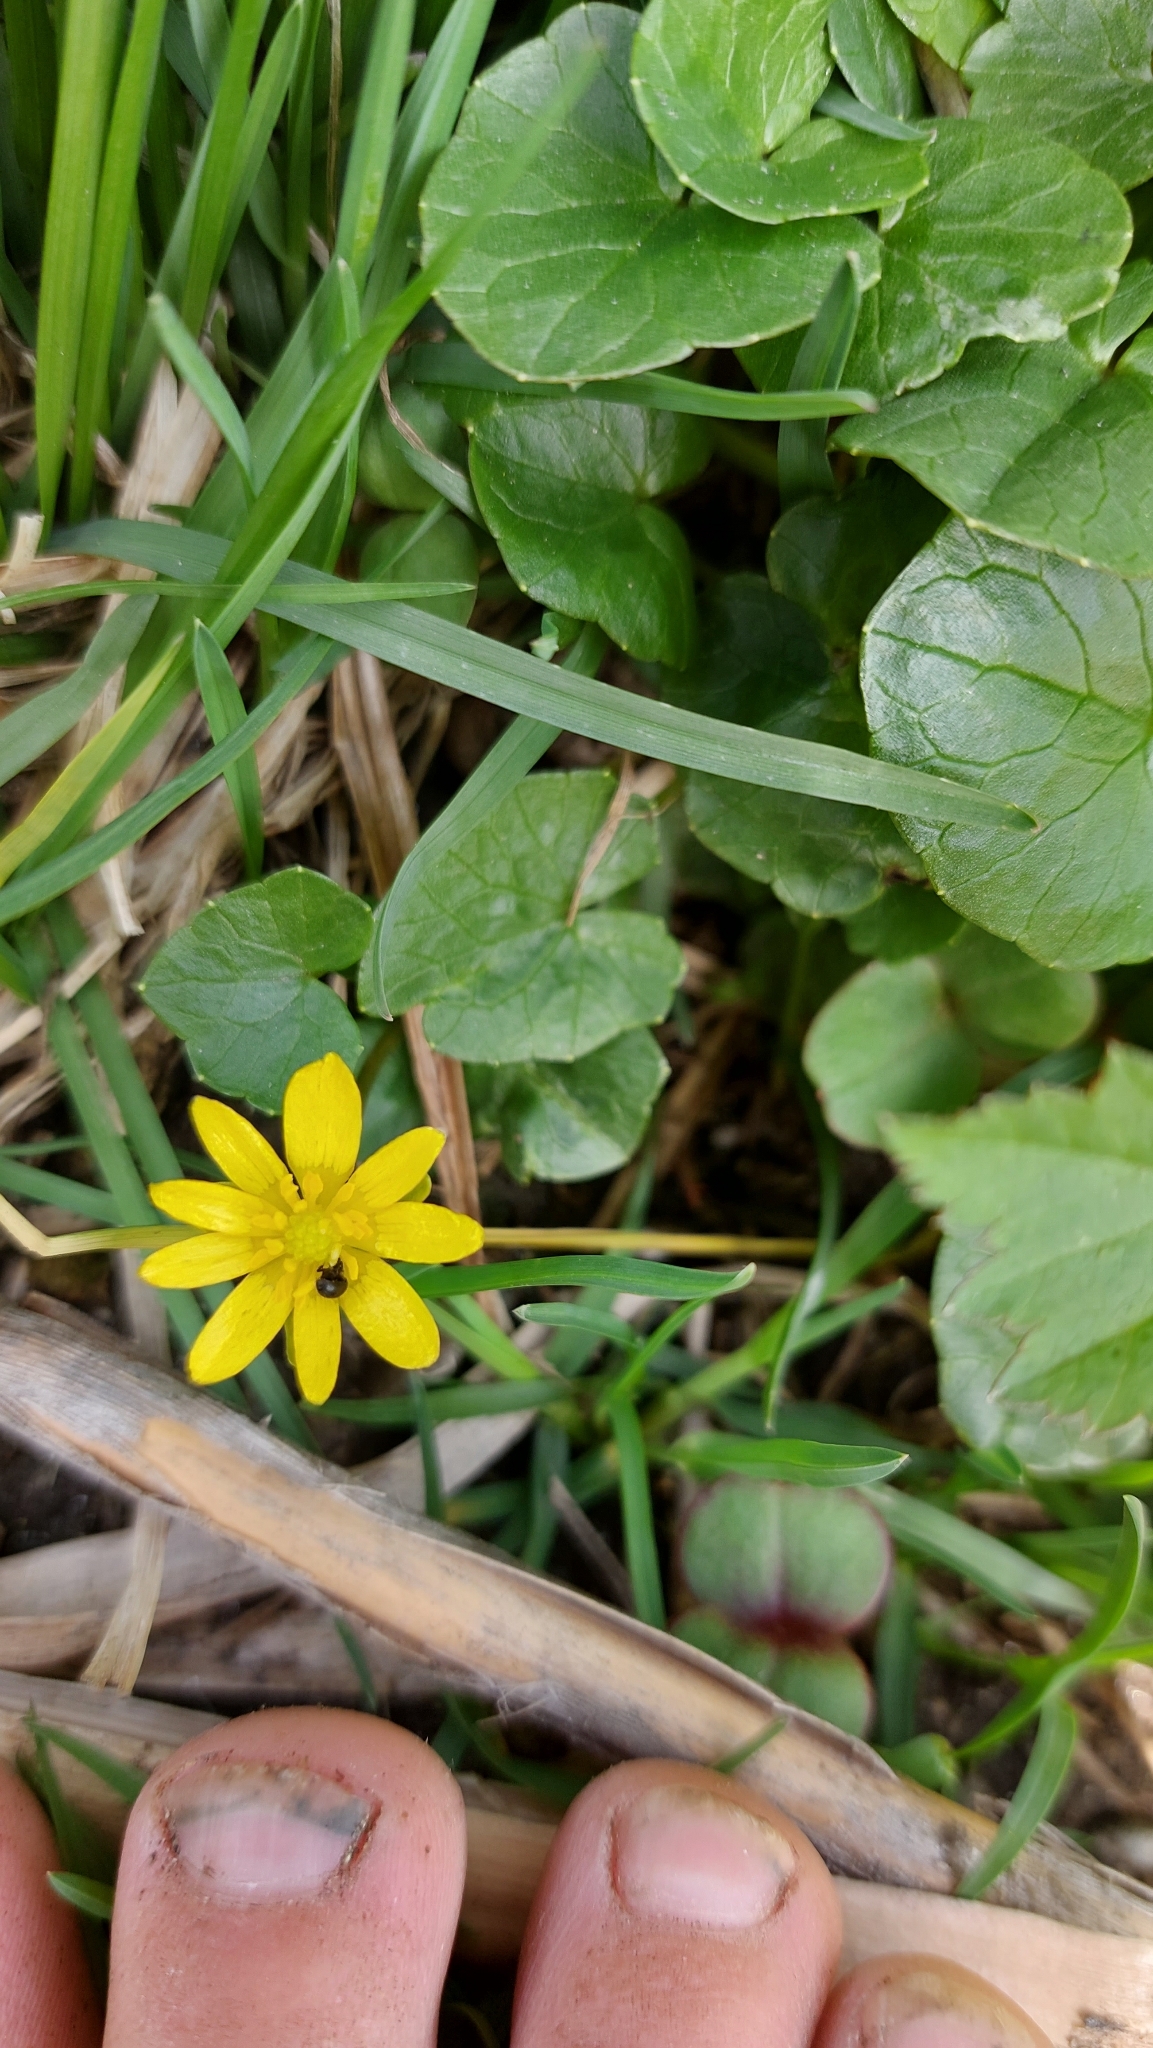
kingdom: Plantae
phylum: Tracheophyta
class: Magnoliopsida
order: Ranunculales
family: Ranunculaceae
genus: Ficaria
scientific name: Ficaria verna
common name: Lesser celandine
